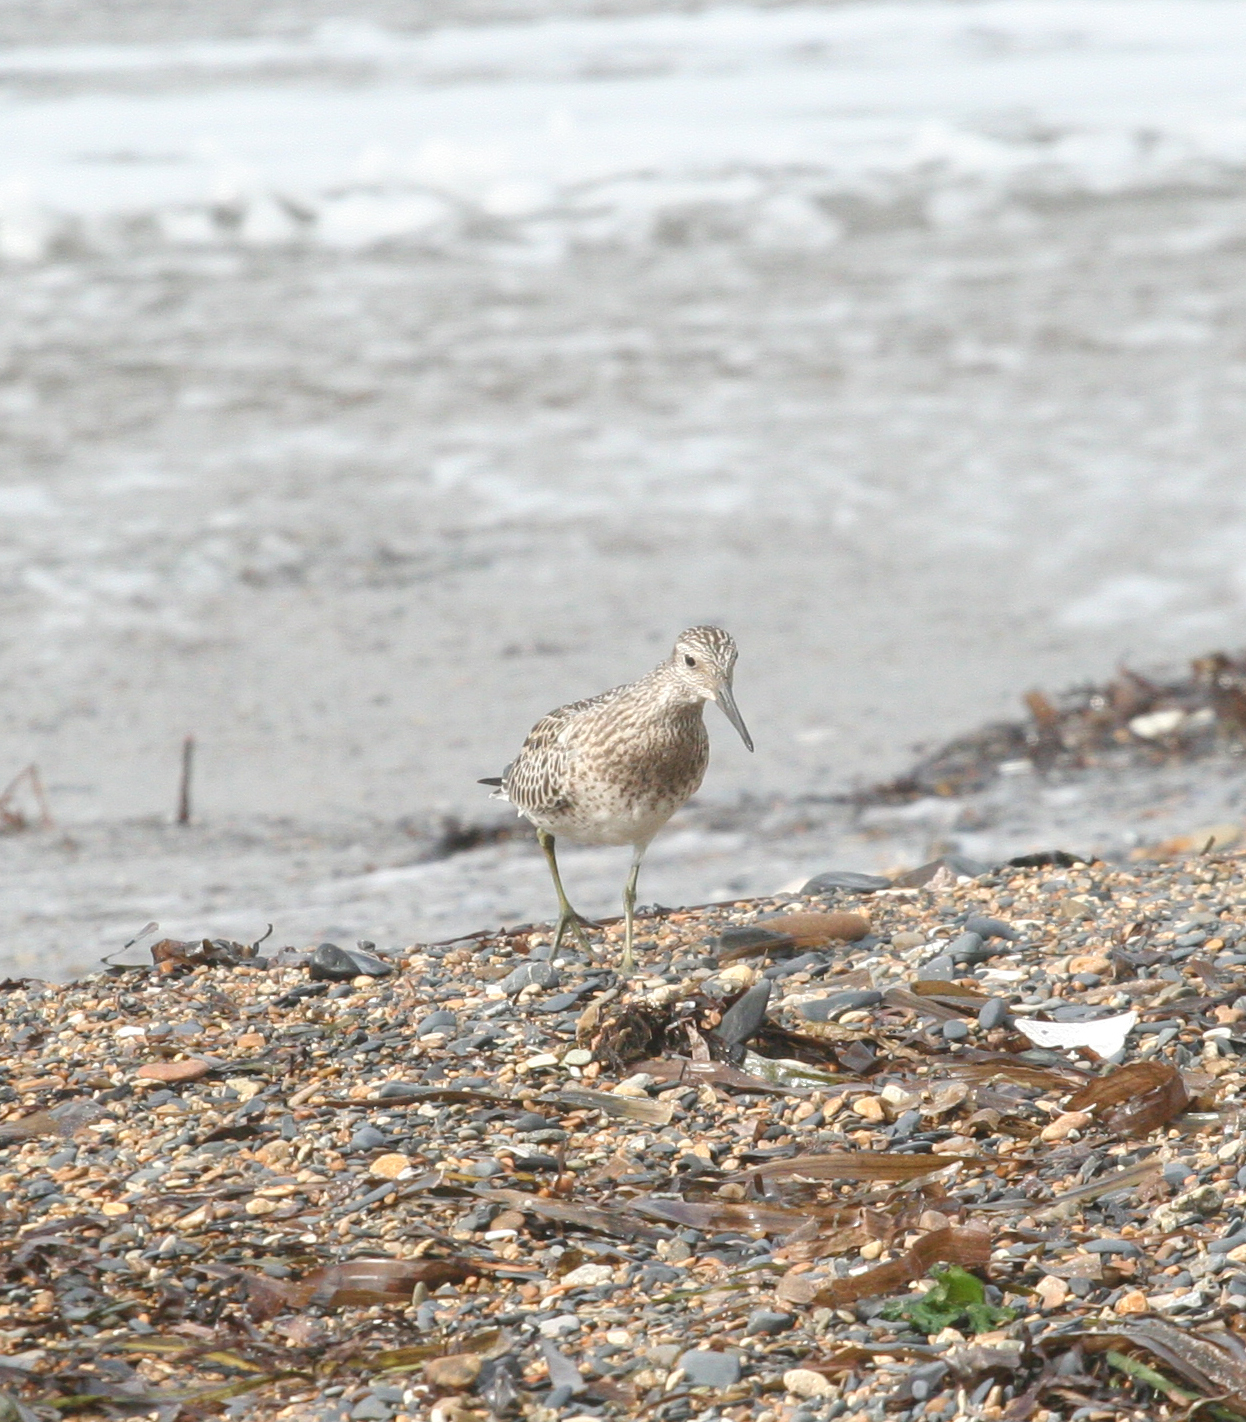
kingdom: Animalia
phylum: Chordata
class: Aves
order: Charadriiformes
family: Scolopacidae
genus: Calidris
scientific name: Calidris tenuirostris
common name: Great knot
